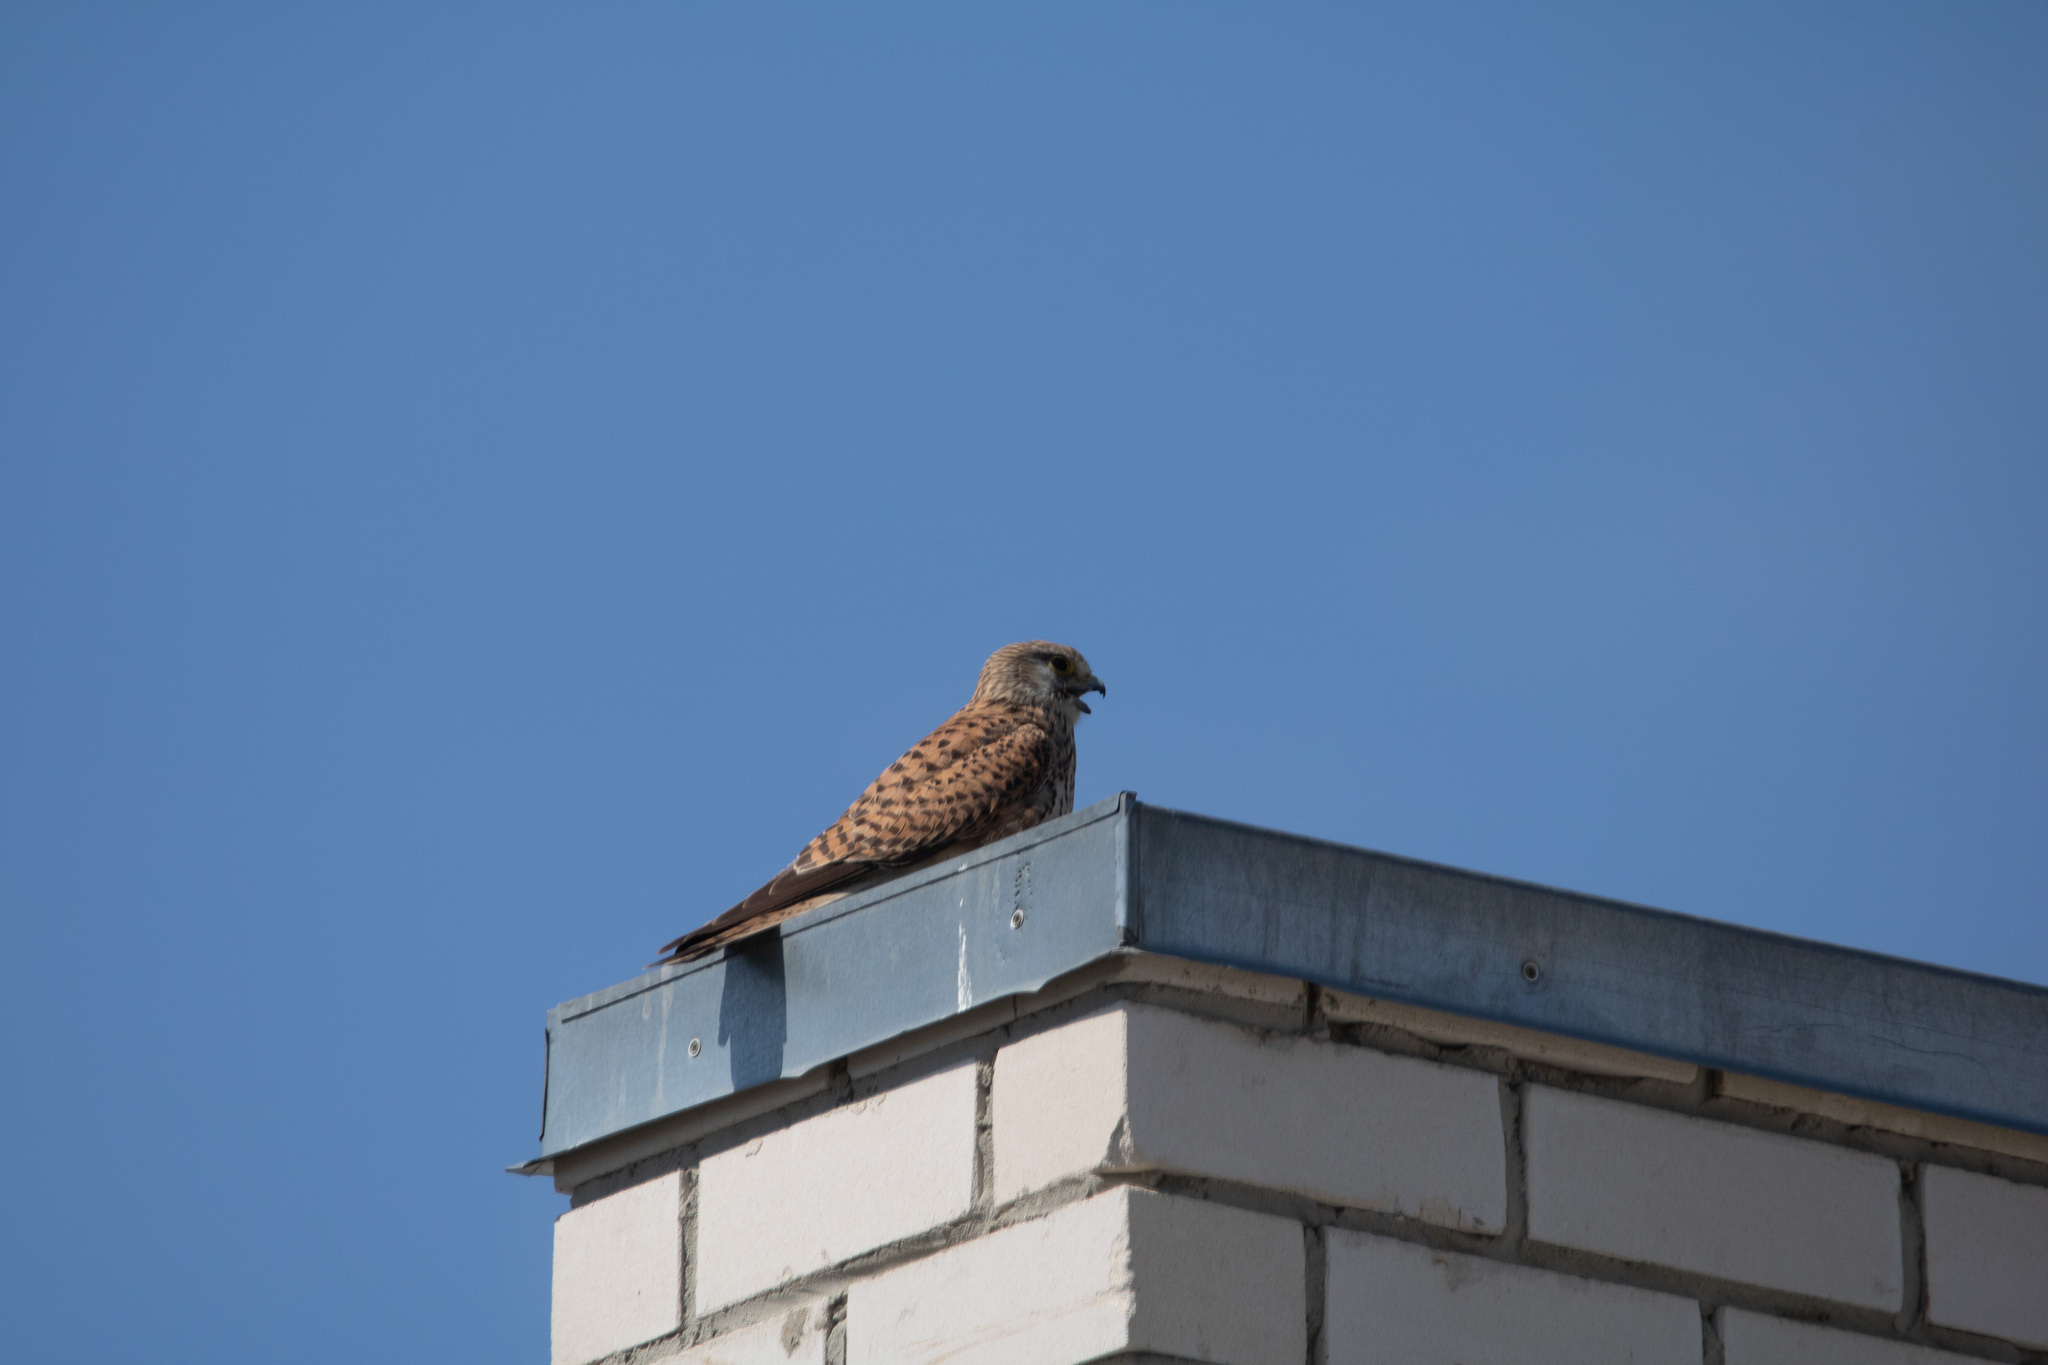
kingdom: Animalia
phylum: Chordata
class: Aves
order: Falconiformes
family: Falconidae
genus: Falco
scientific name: Falco tinnunculus
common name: Common kestrel
